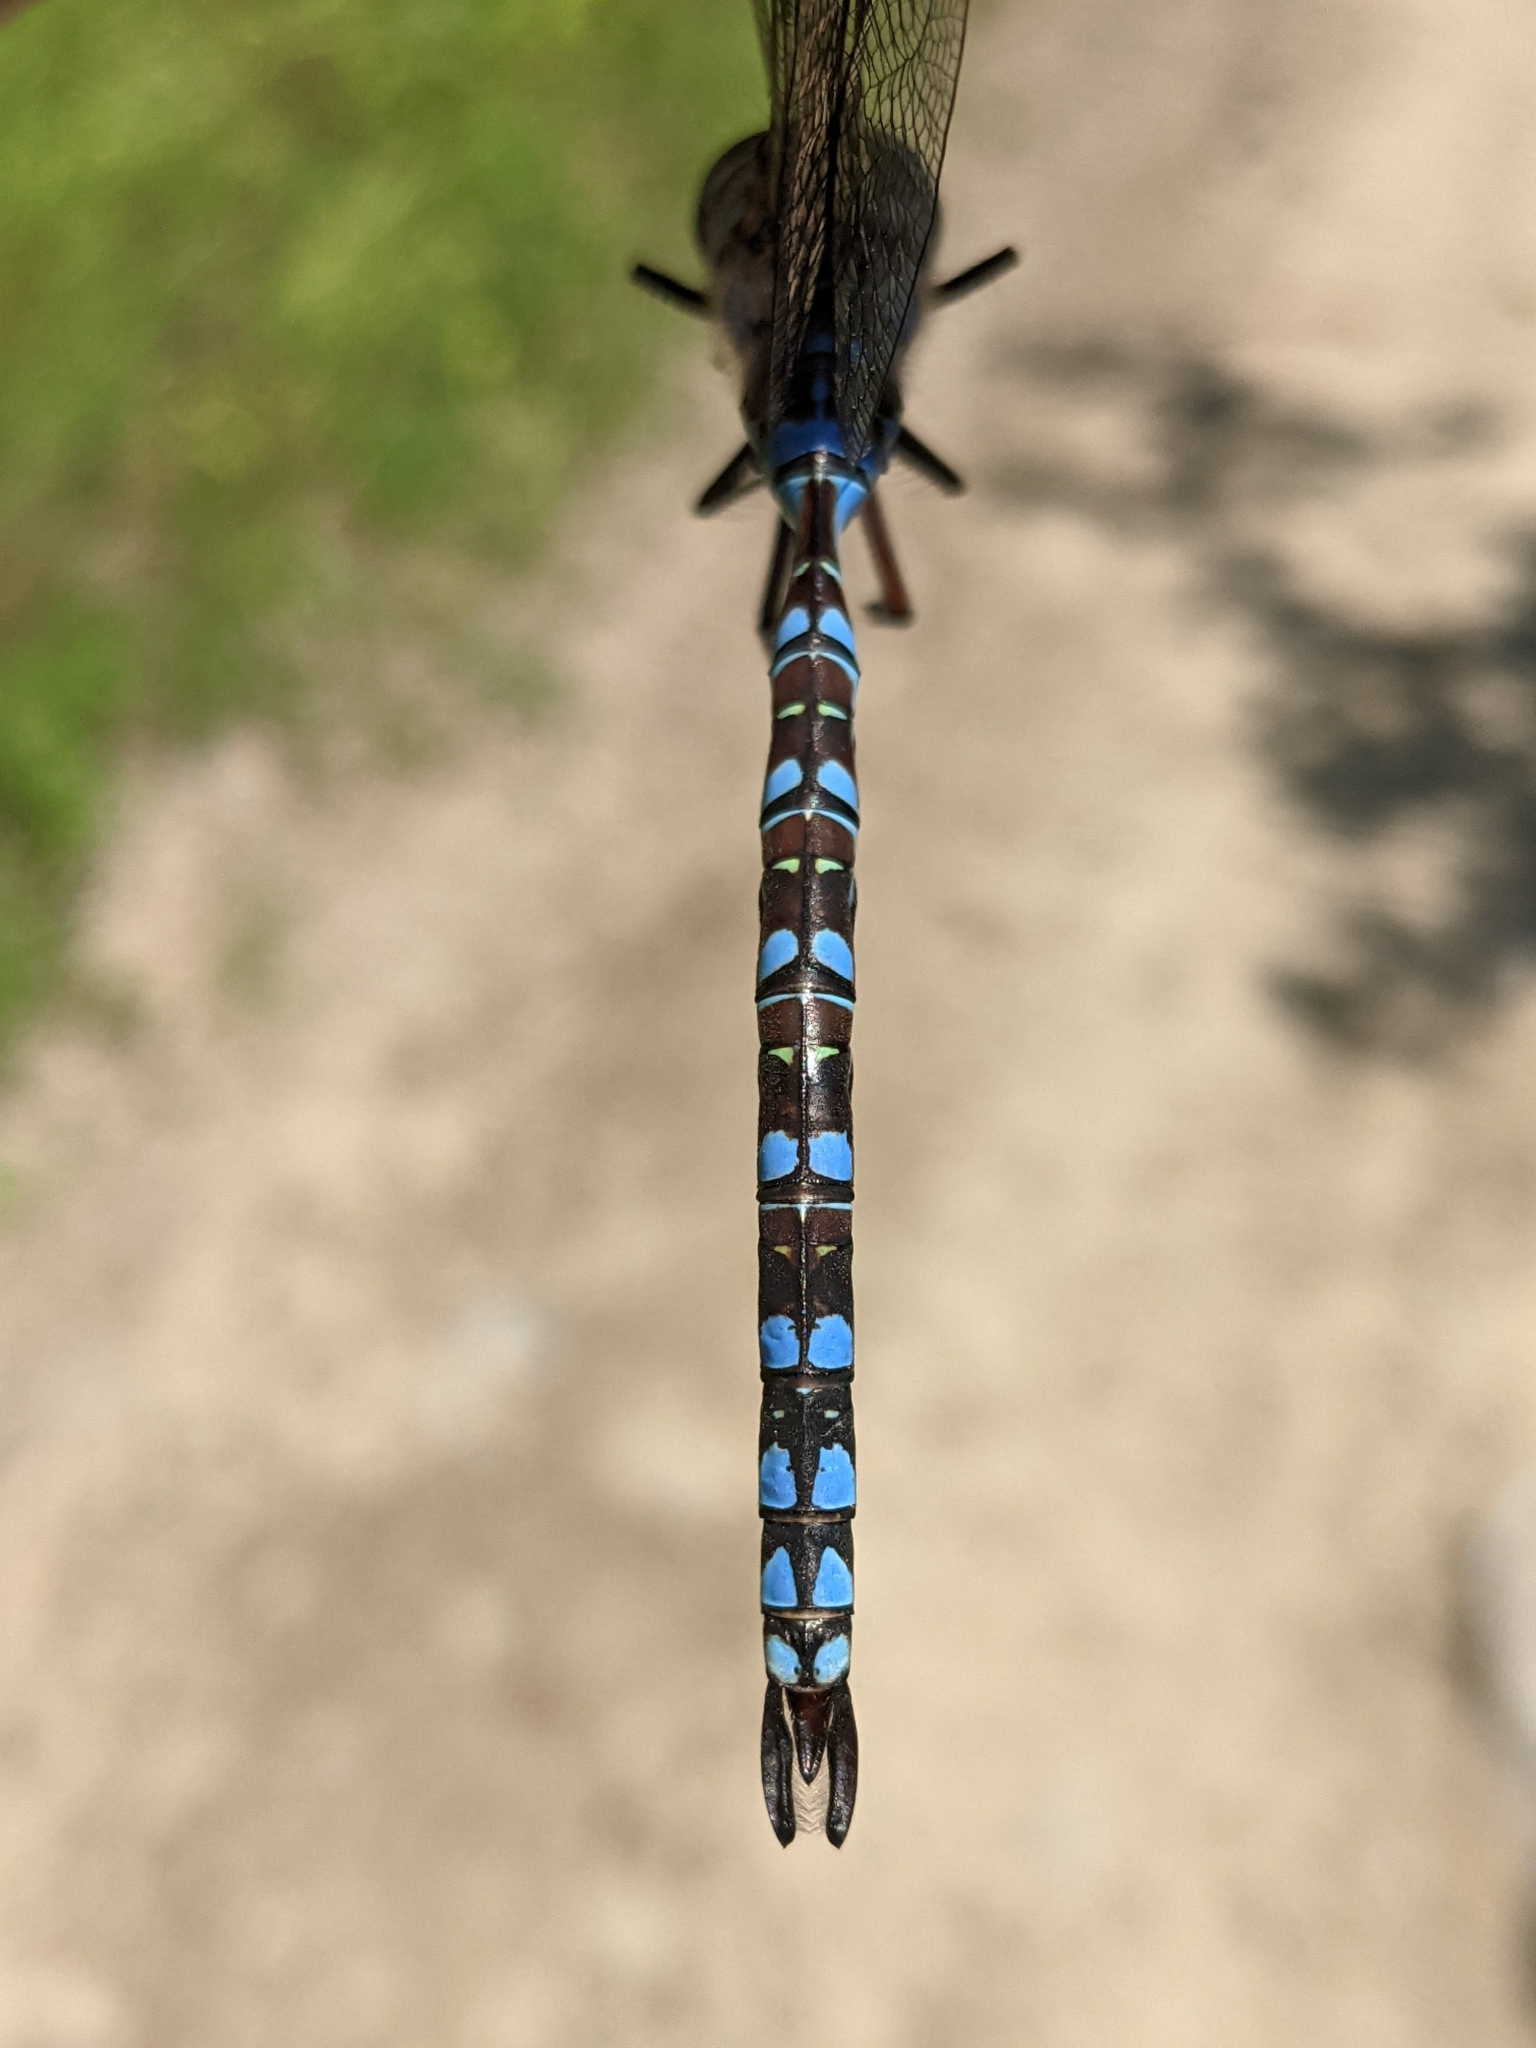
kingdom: Animalia
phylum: Arthropoda
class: Insecta
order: Odonata
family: Aeshnidae
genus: Aeshna
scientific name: Aeshna canadensis
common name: Canada darner
